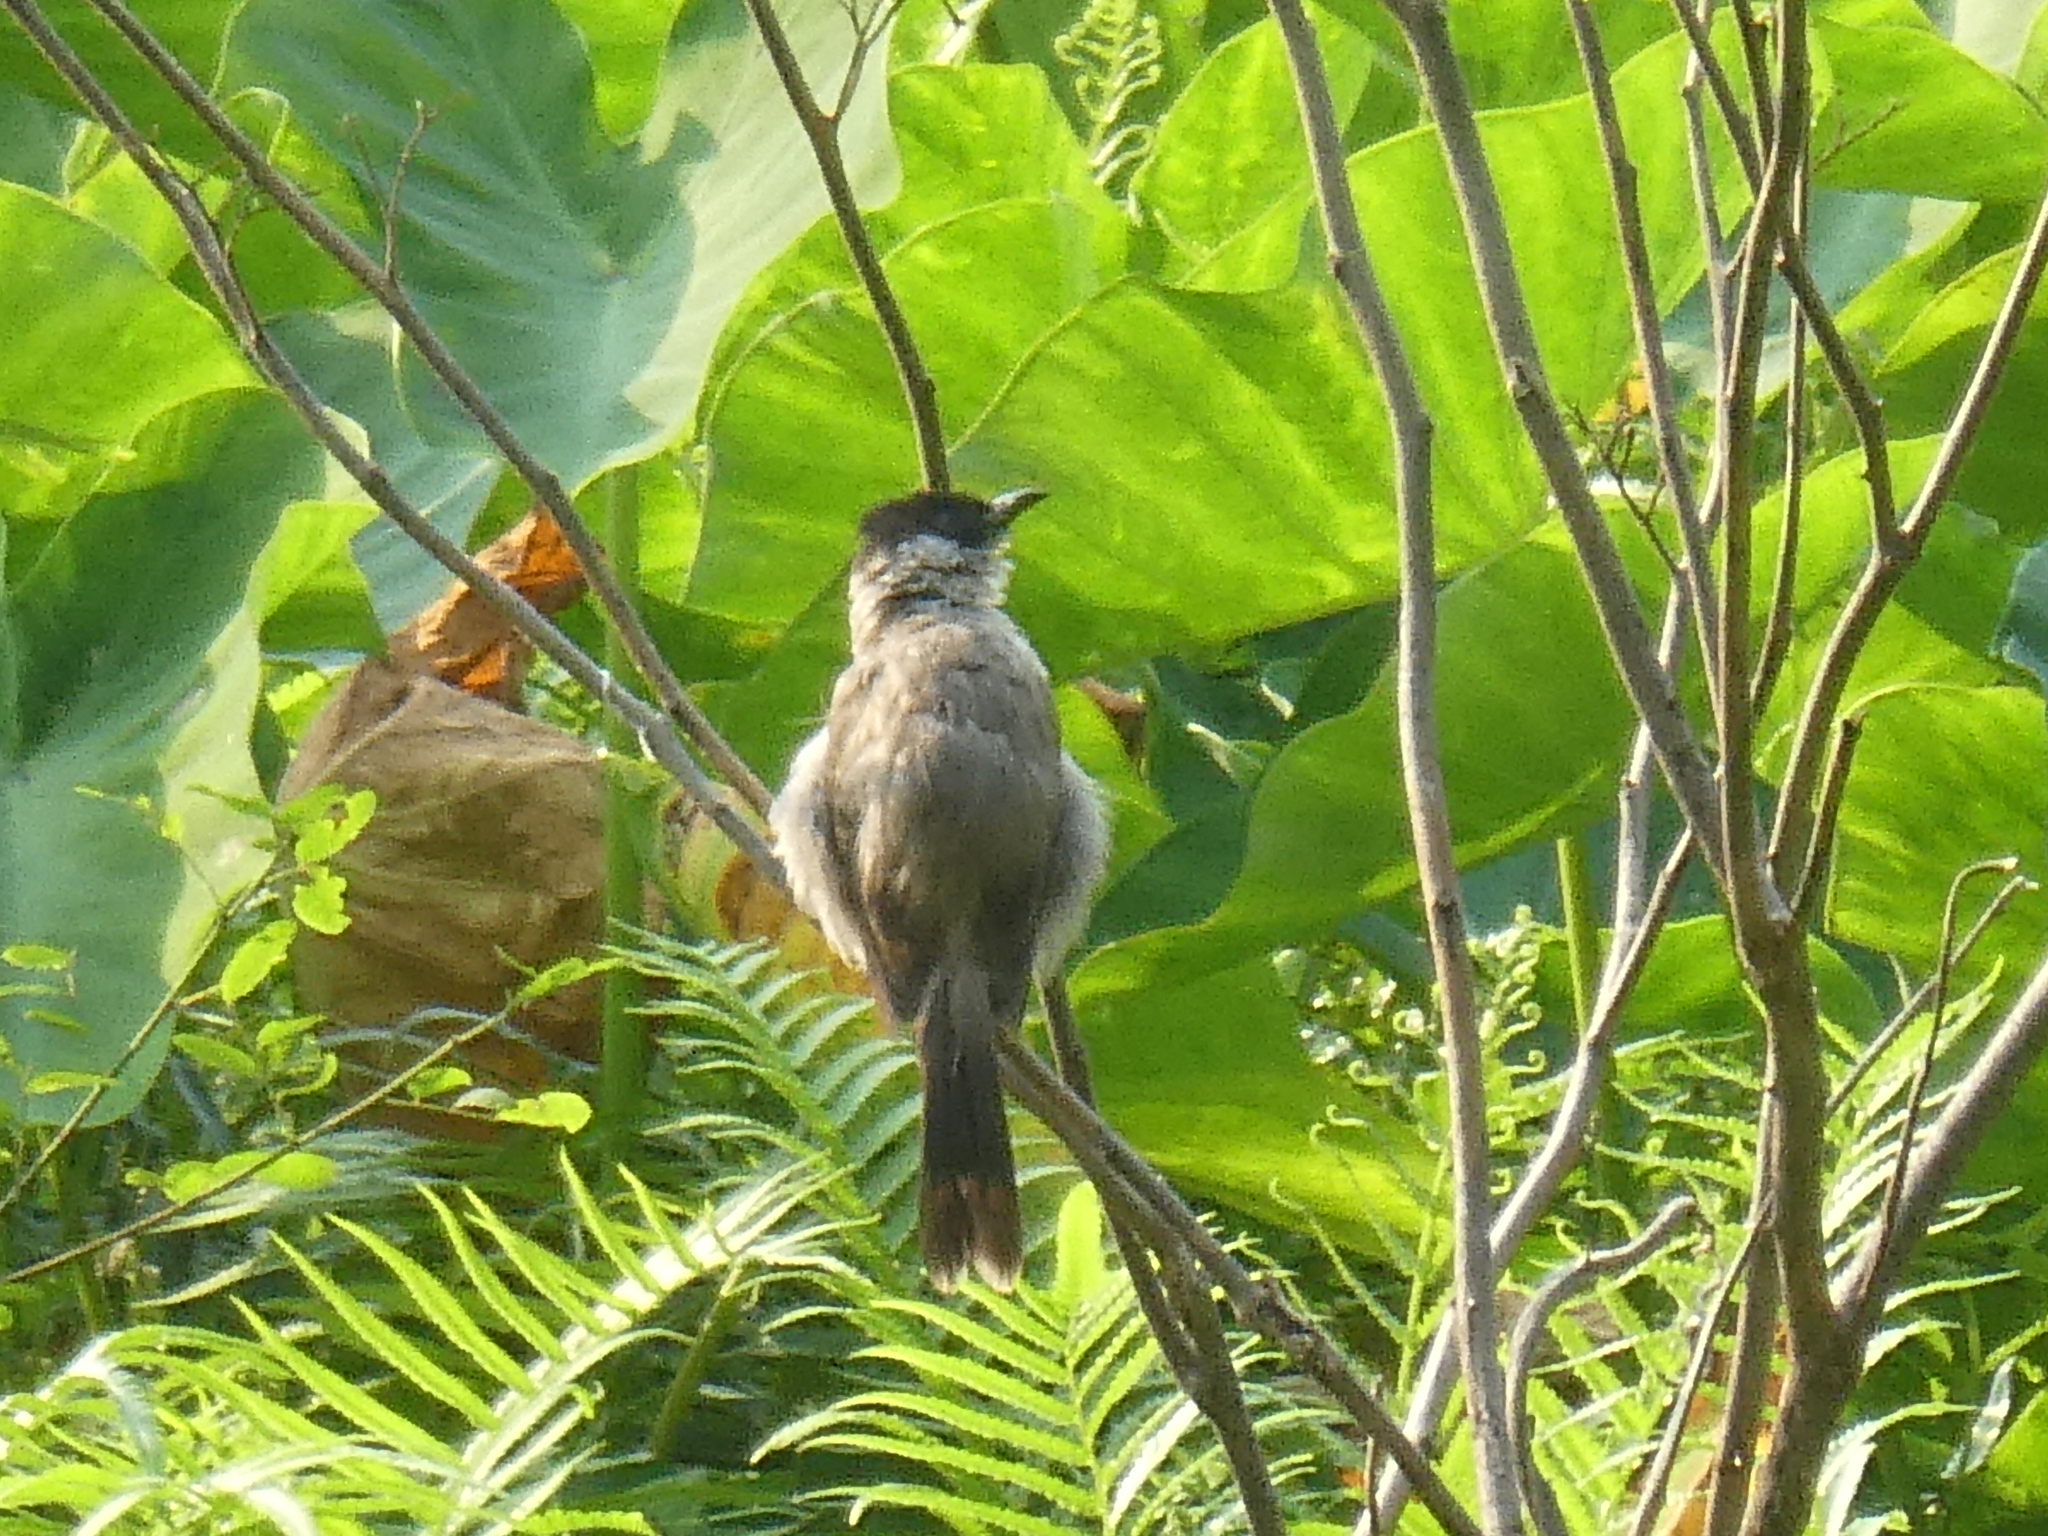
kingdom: Animalia
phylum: Chordata
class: Aves
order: Passeriformes
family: Pycnonotidae
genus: Pycnonotus
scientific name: Pycnonotus aurigaster
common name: Sooty-headed bulbul
